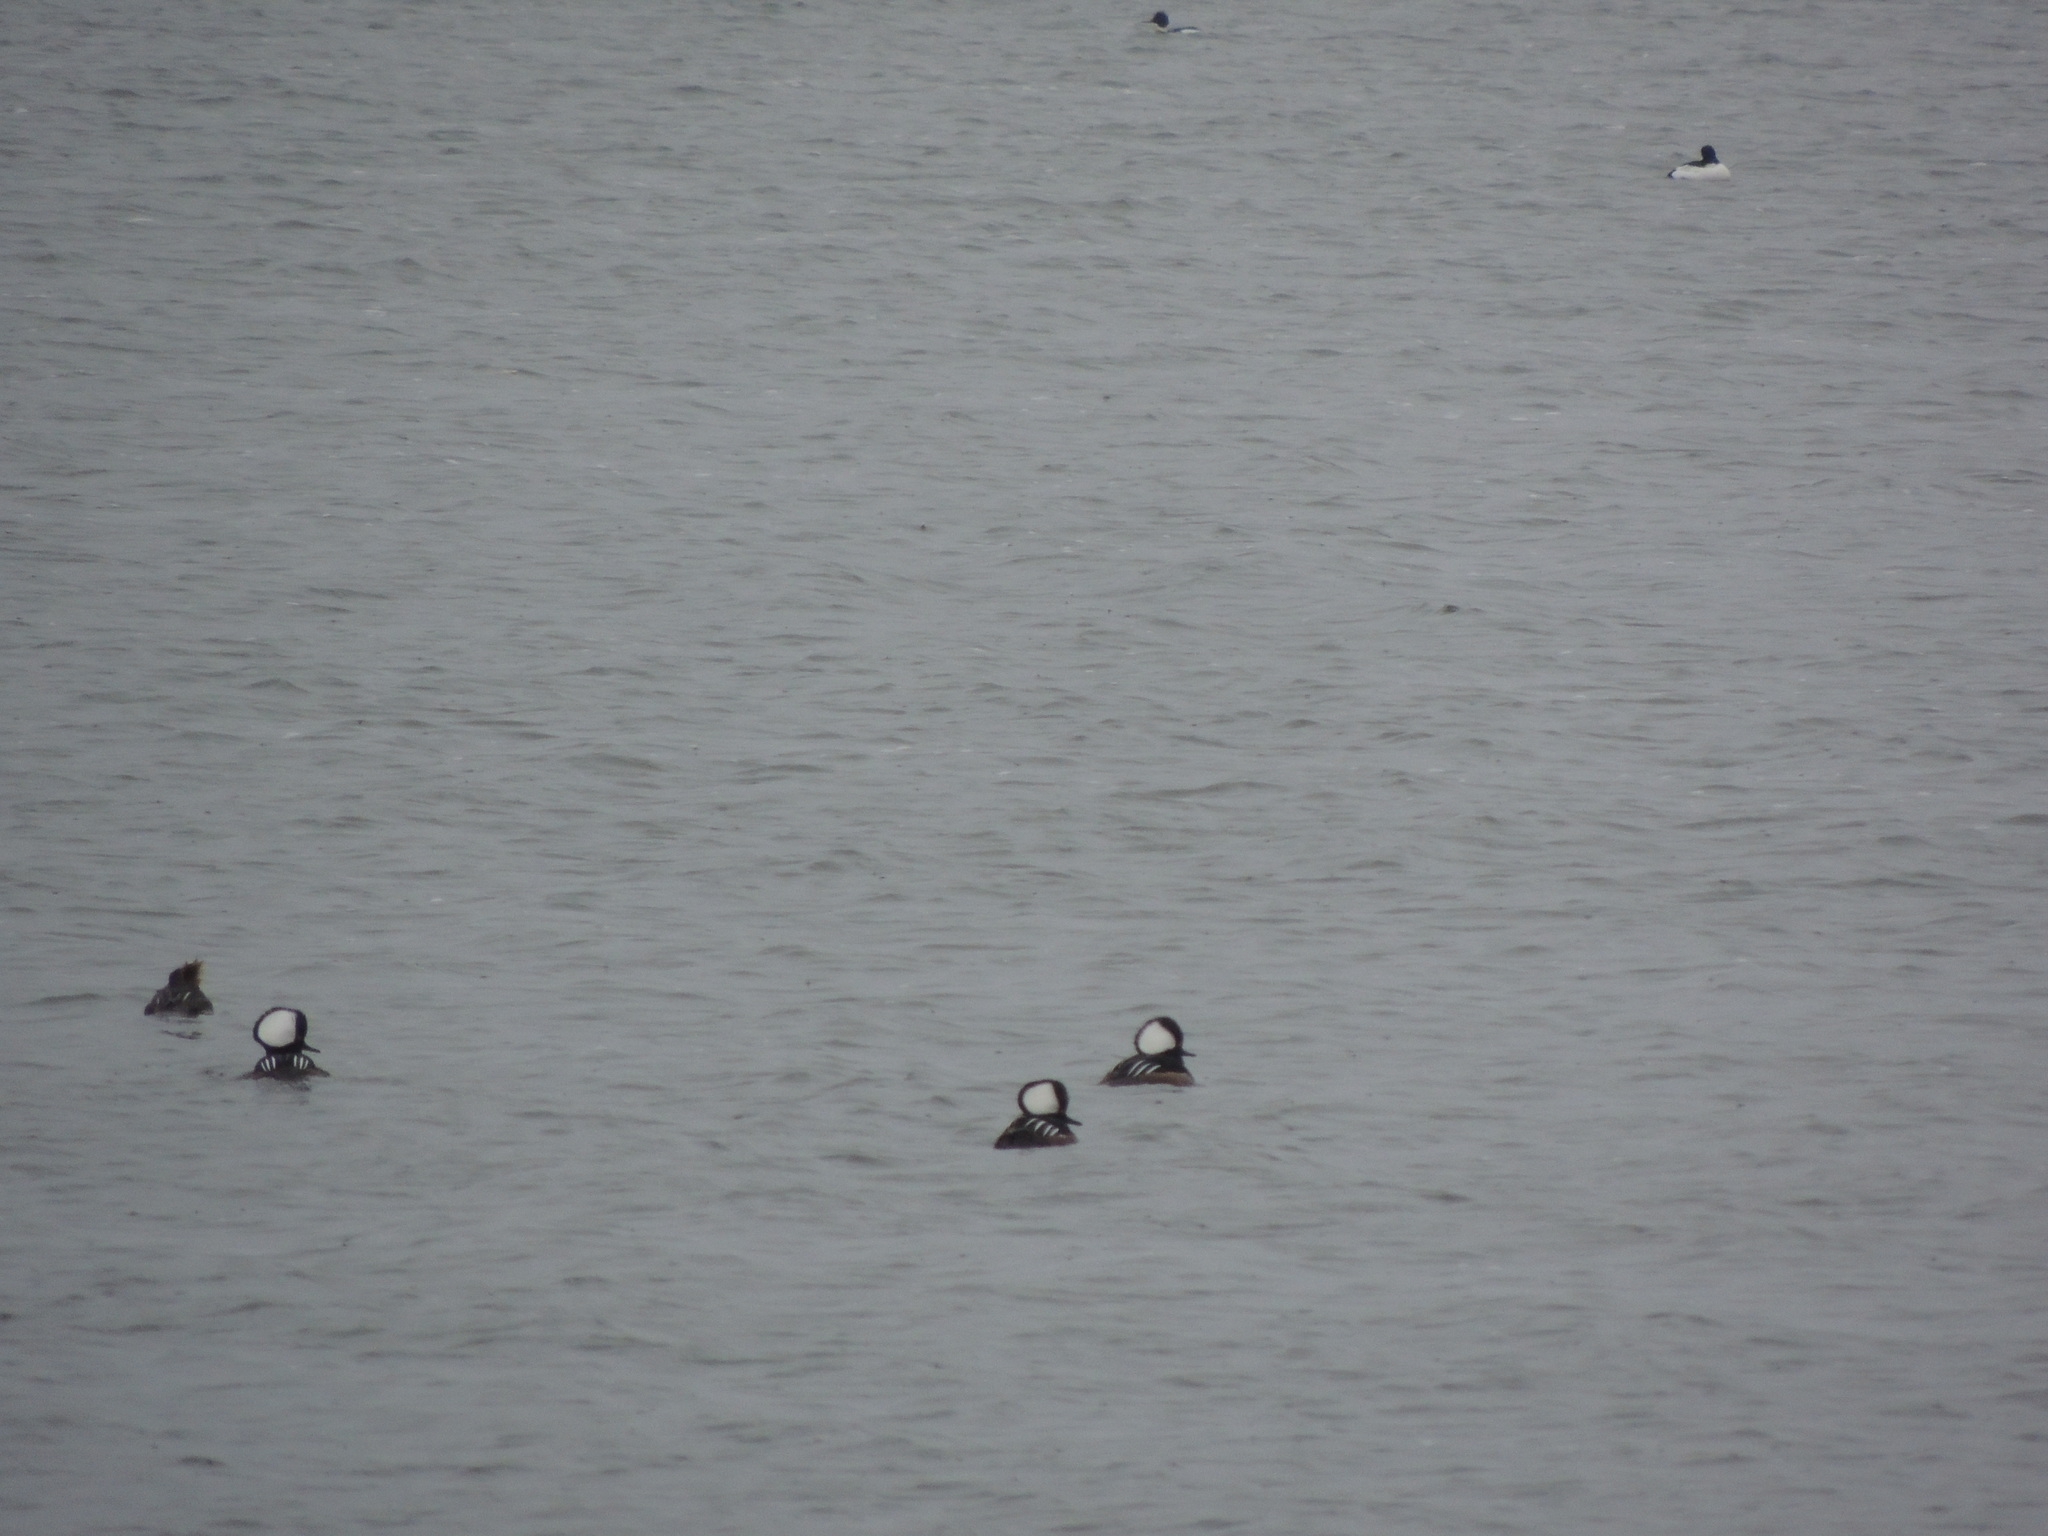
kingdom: Animalia
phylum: Chordata
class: Aves
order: Anseriformes
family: Anatidae
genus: Lophodytes
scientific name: Lophodytes cucullatus
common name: Hooded merganser
